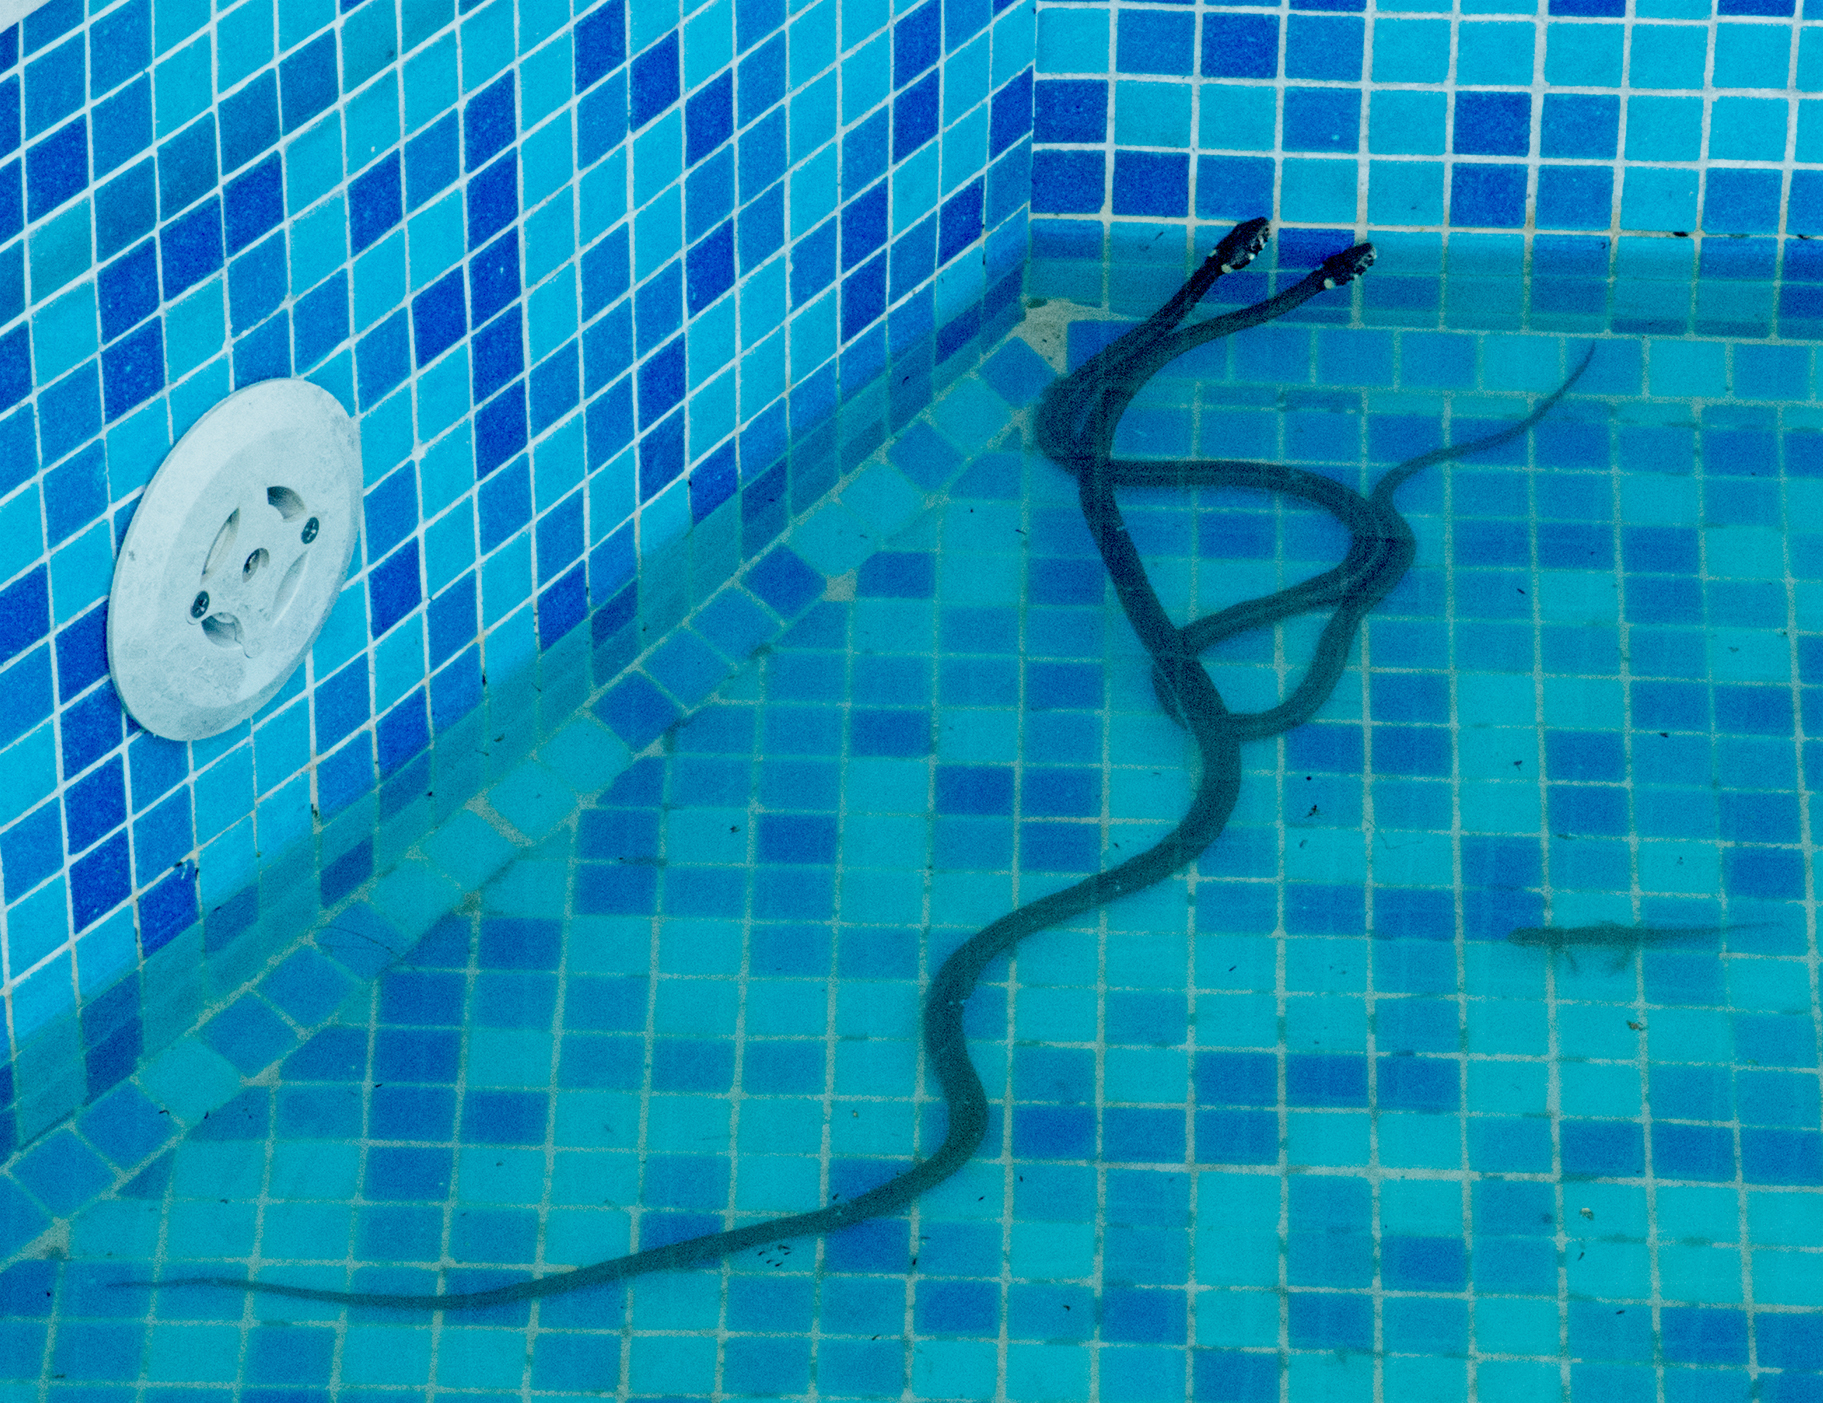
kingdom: Animalia
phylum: Chordata
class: Squamata
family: Colubridae
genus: Natrix
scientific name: Natrix natrix
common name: Grass snake
